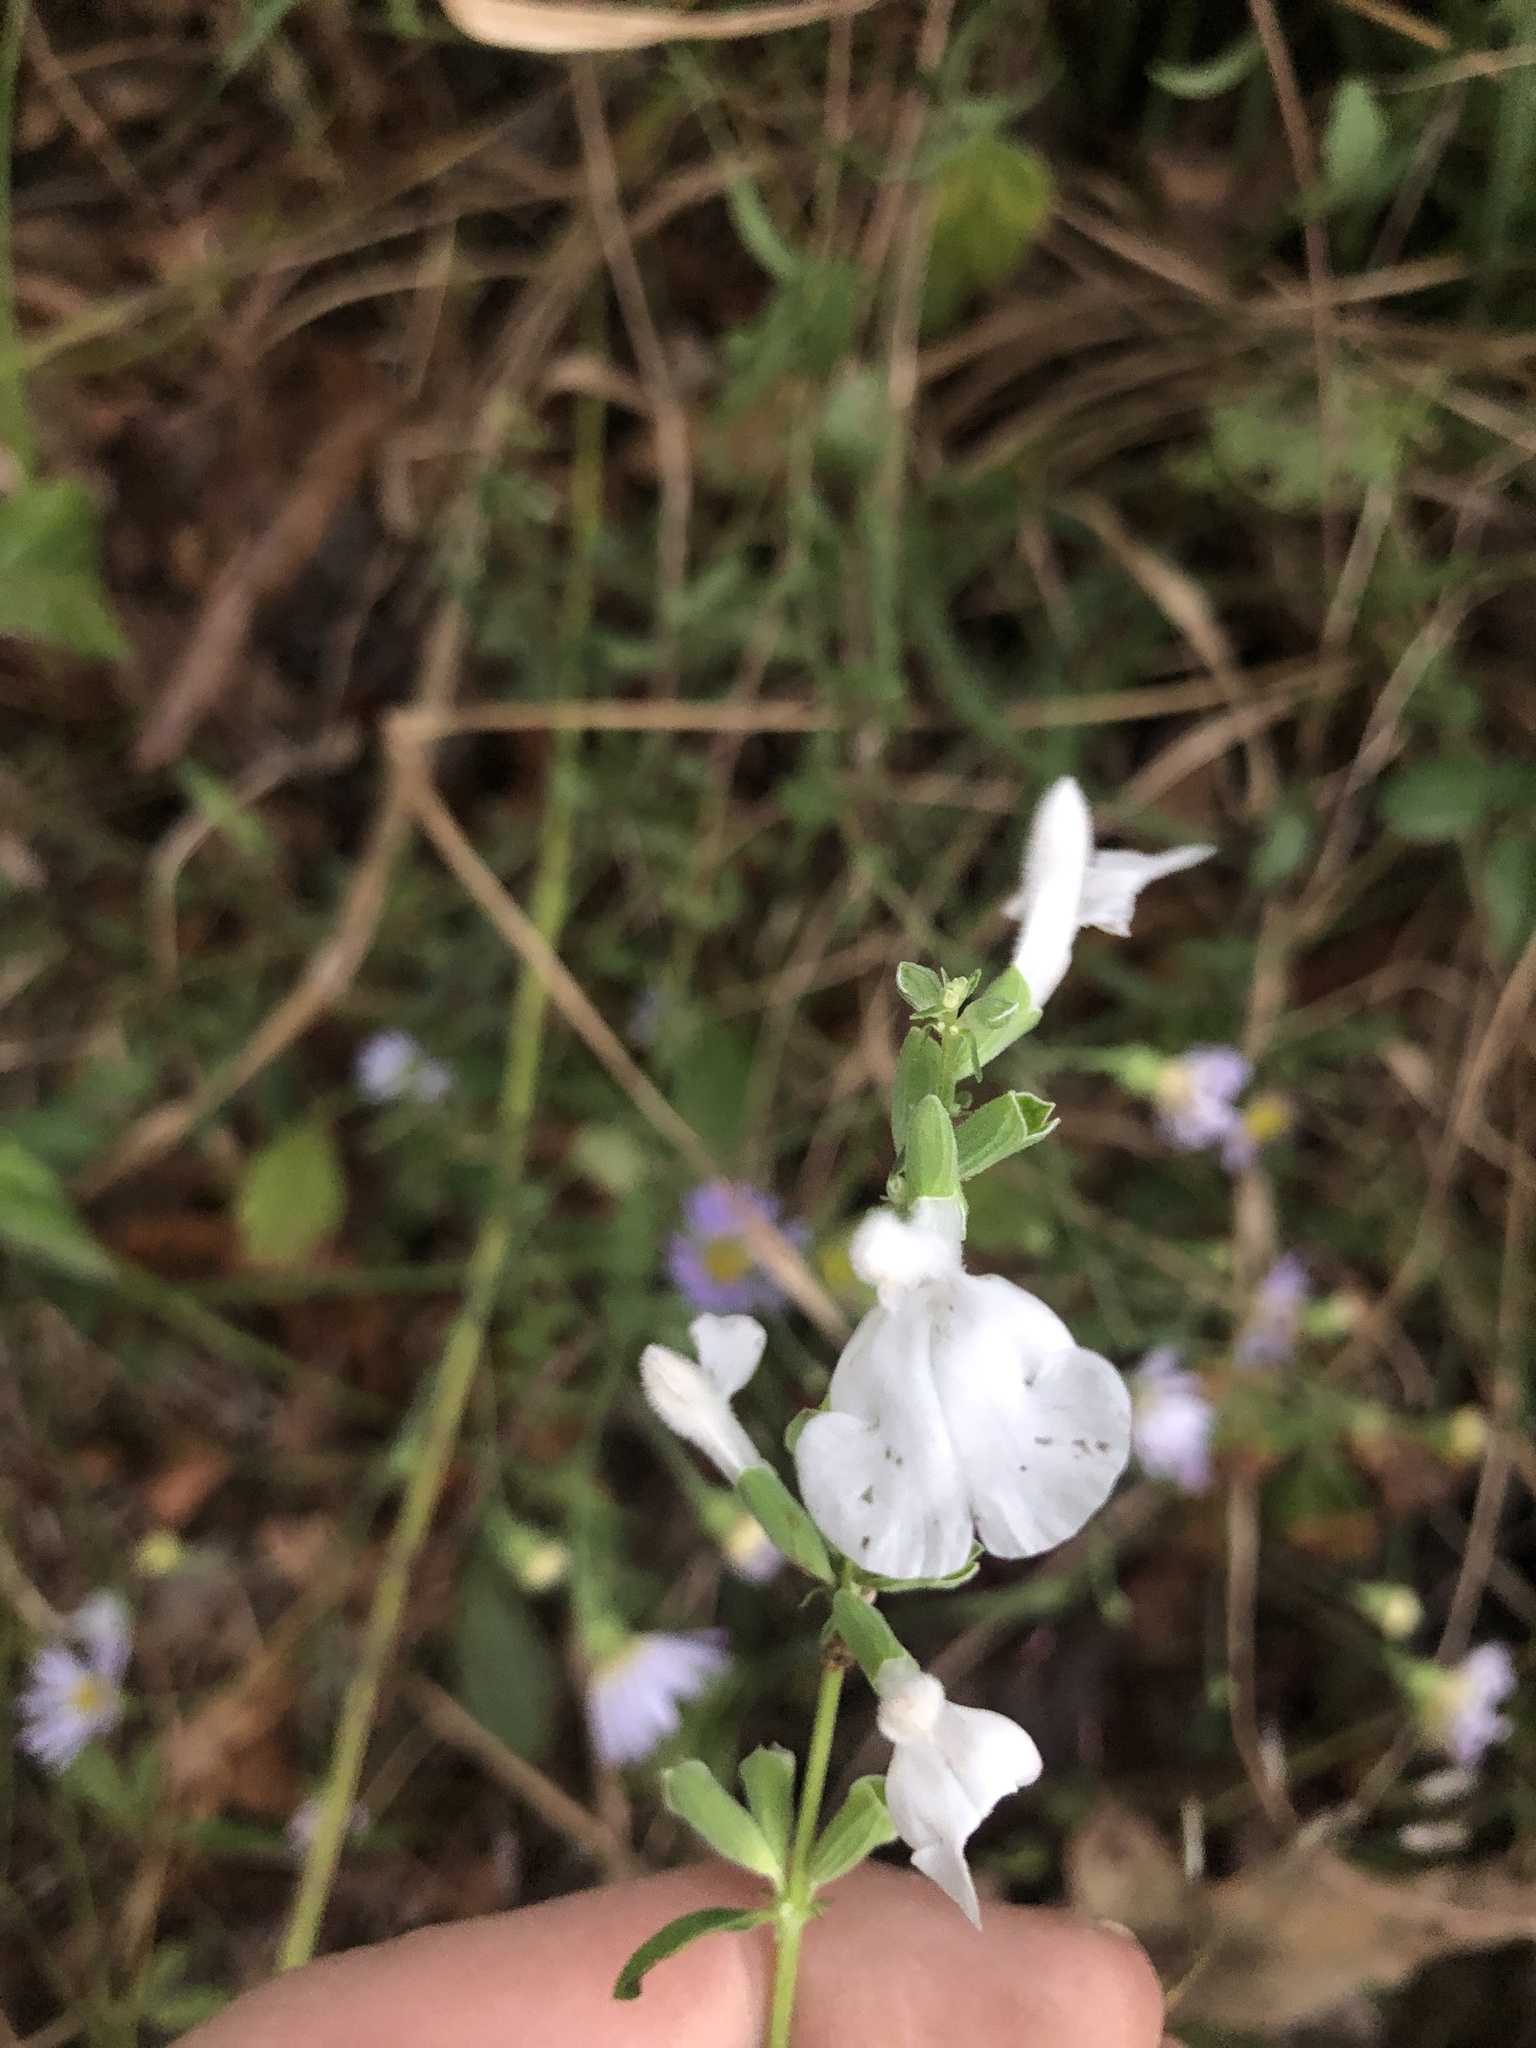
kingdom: Plantae
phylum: Tracheophyta
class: Magnoliopsida
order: Lamiales
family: Lamiaceae
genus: Salvia
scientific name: Salvia azurea
